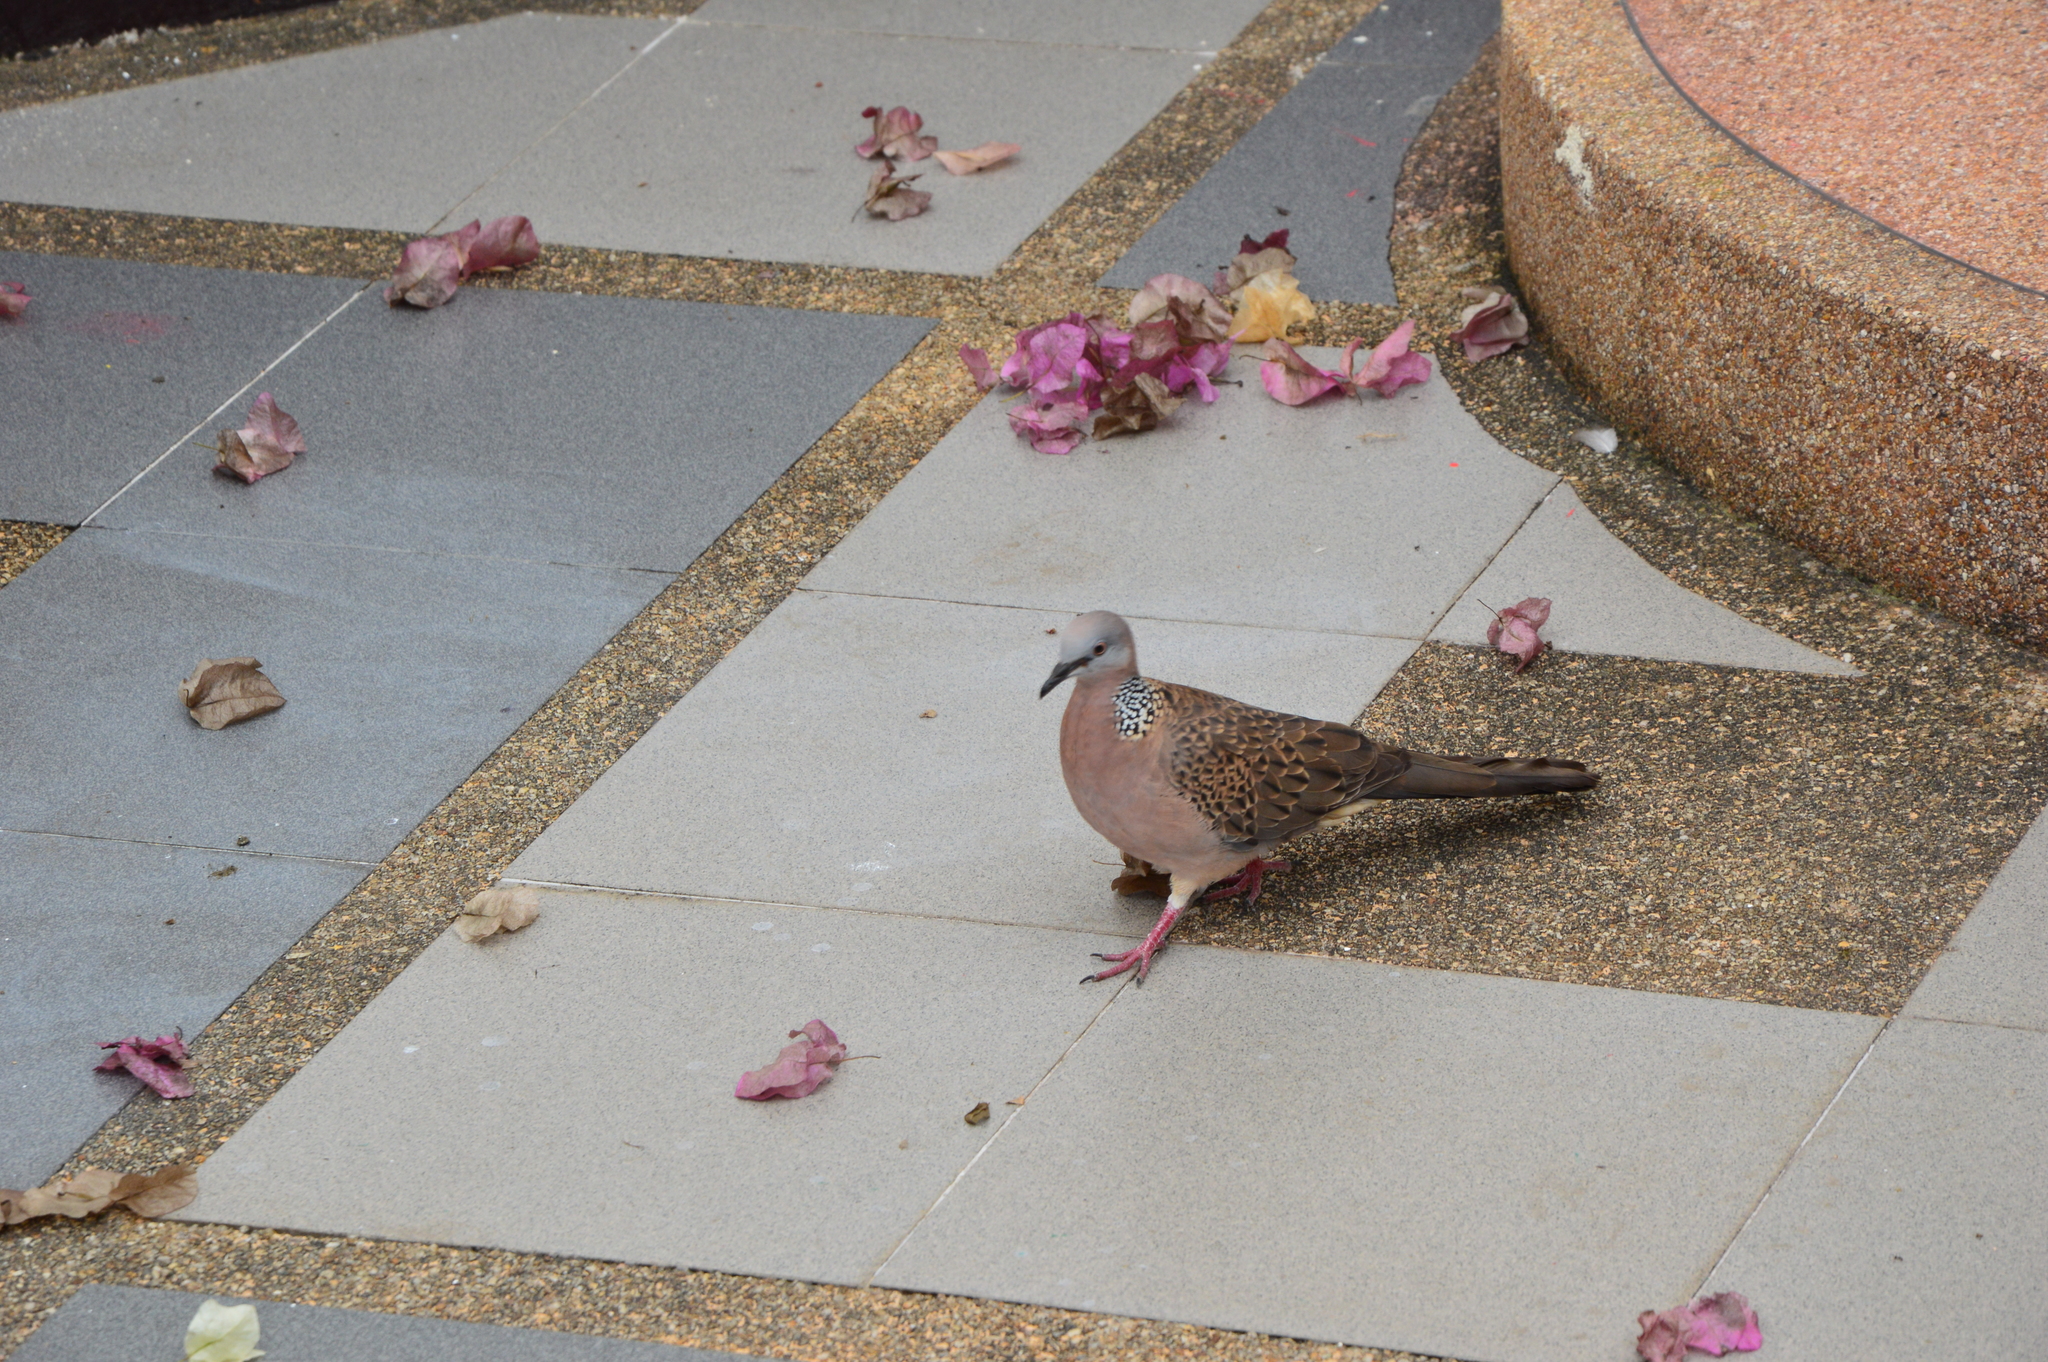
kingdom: Animalia
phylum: Chordata
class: Aves
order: Columbiformes
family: Columbidae
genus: Spilopelia
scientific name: Spilopelia chinensis
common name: Spotted dove
